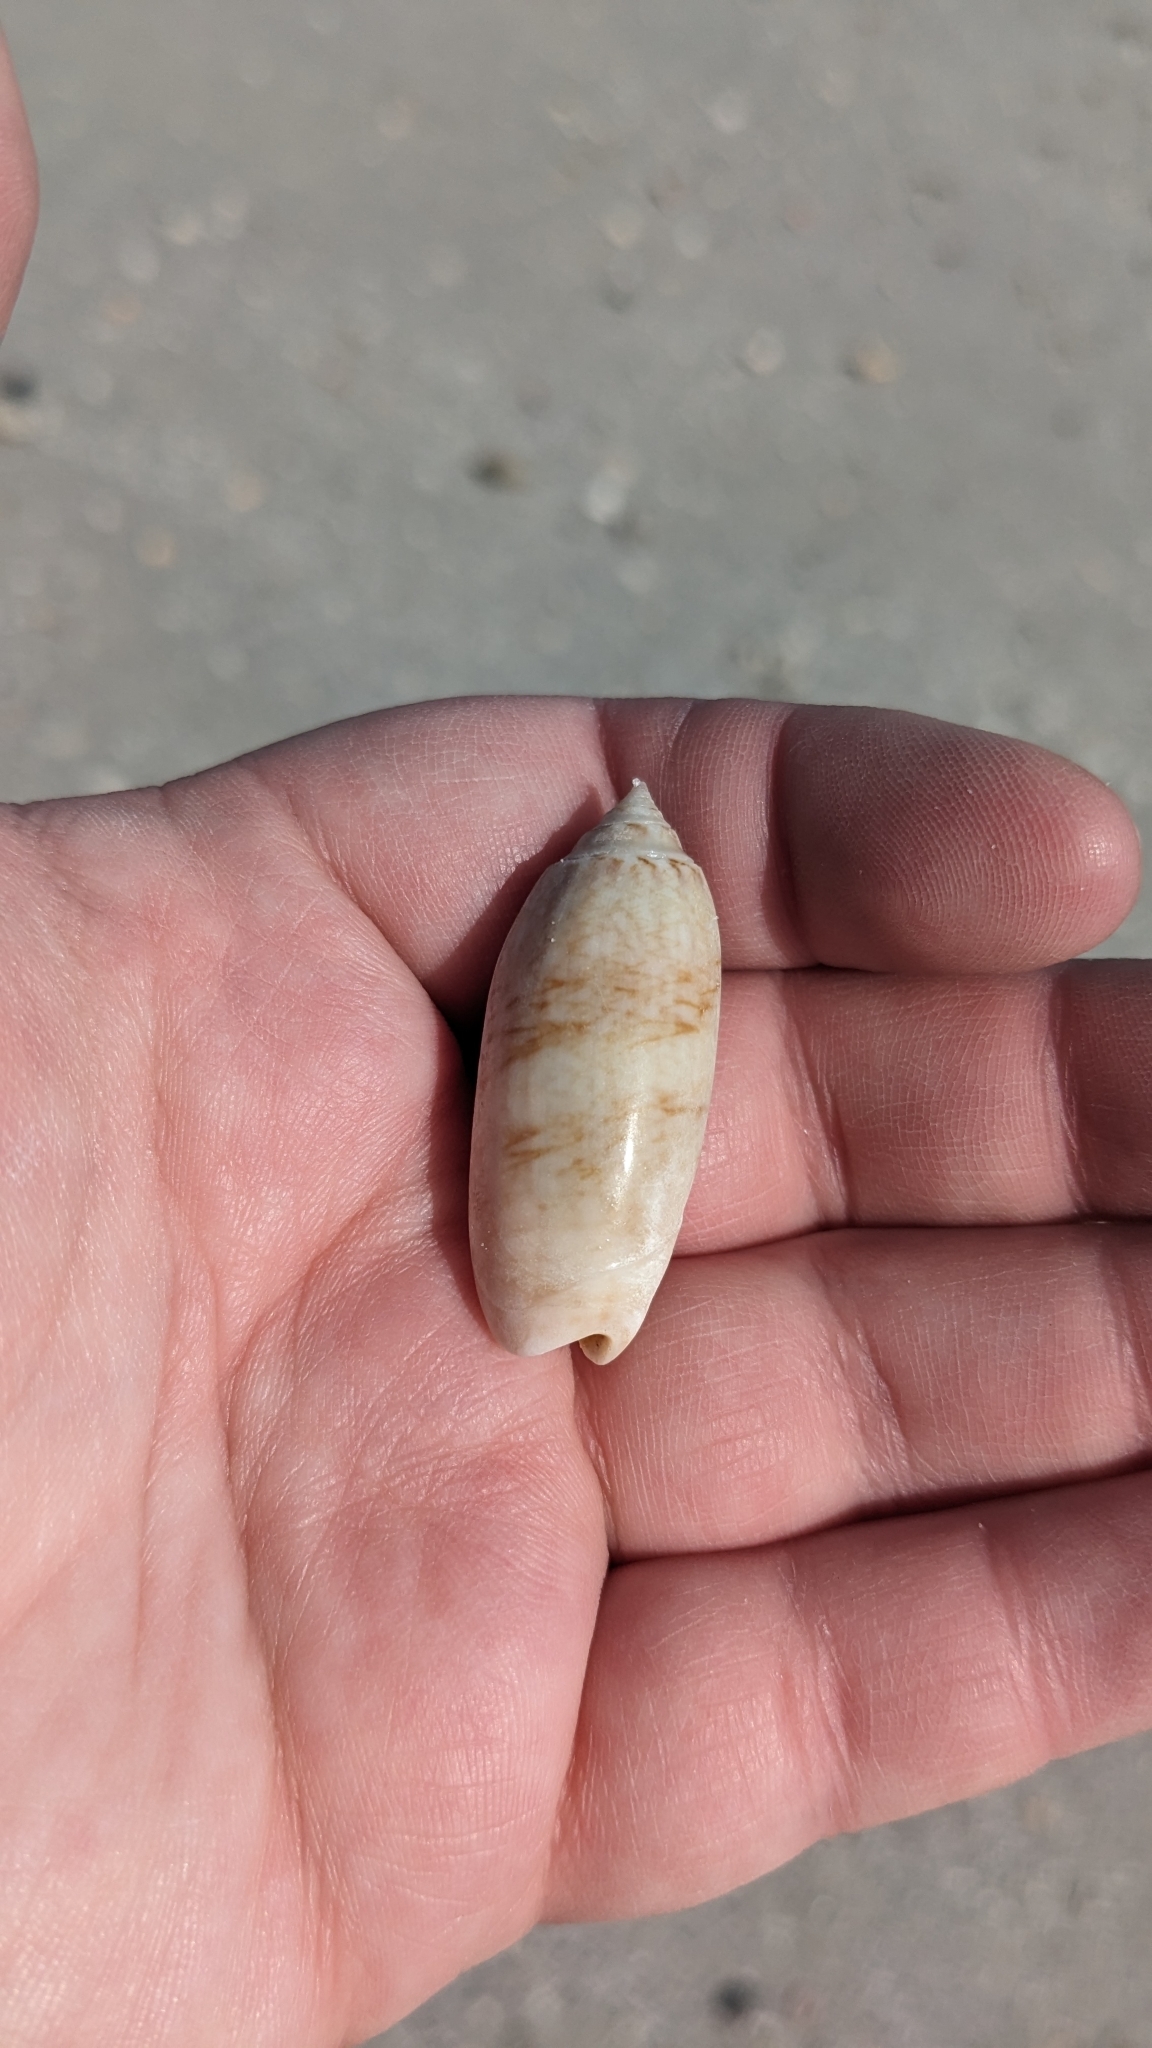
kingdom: Animalia
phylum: Mollusca
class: Gastropoda
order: Neogastropoda
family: Olividae
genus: Oliva
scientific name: Oliva sayana
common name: Lettered olive
